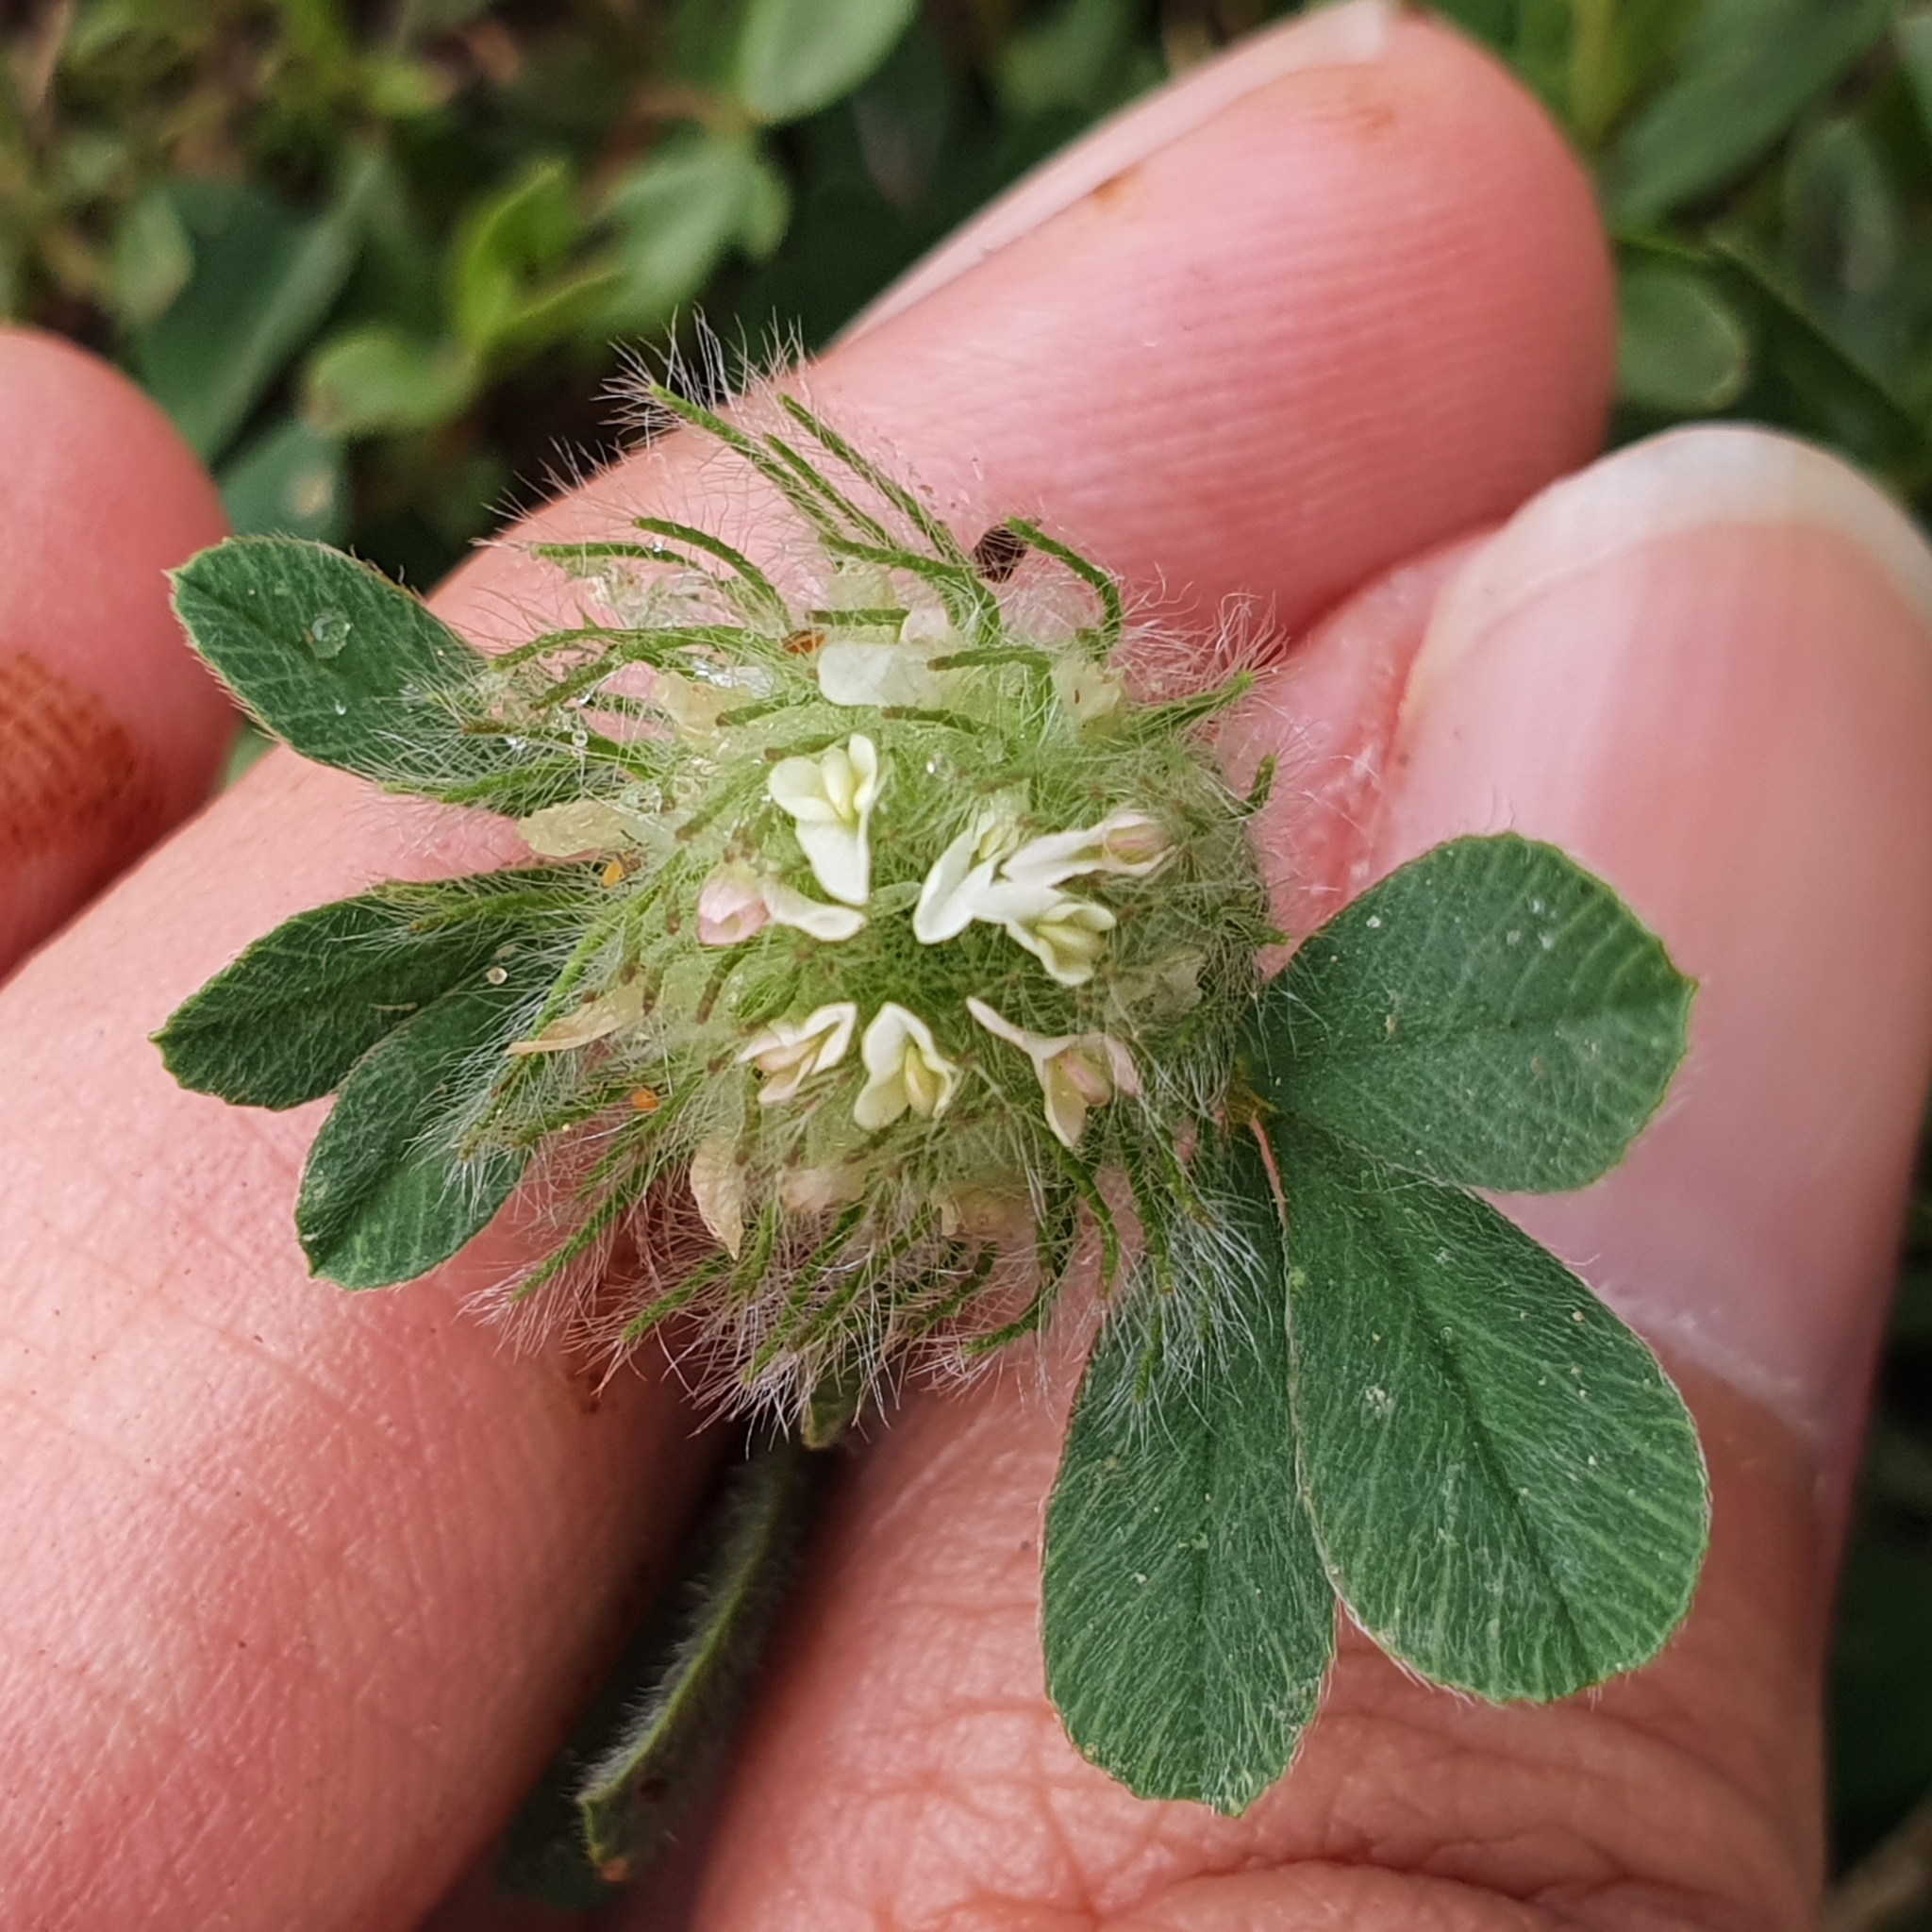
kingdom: Plantae
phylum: Tracheophyta
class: Magnoliopsida
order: Fabales
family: Fabaceae
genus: Trifolium
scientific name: Trifolium cherleri
